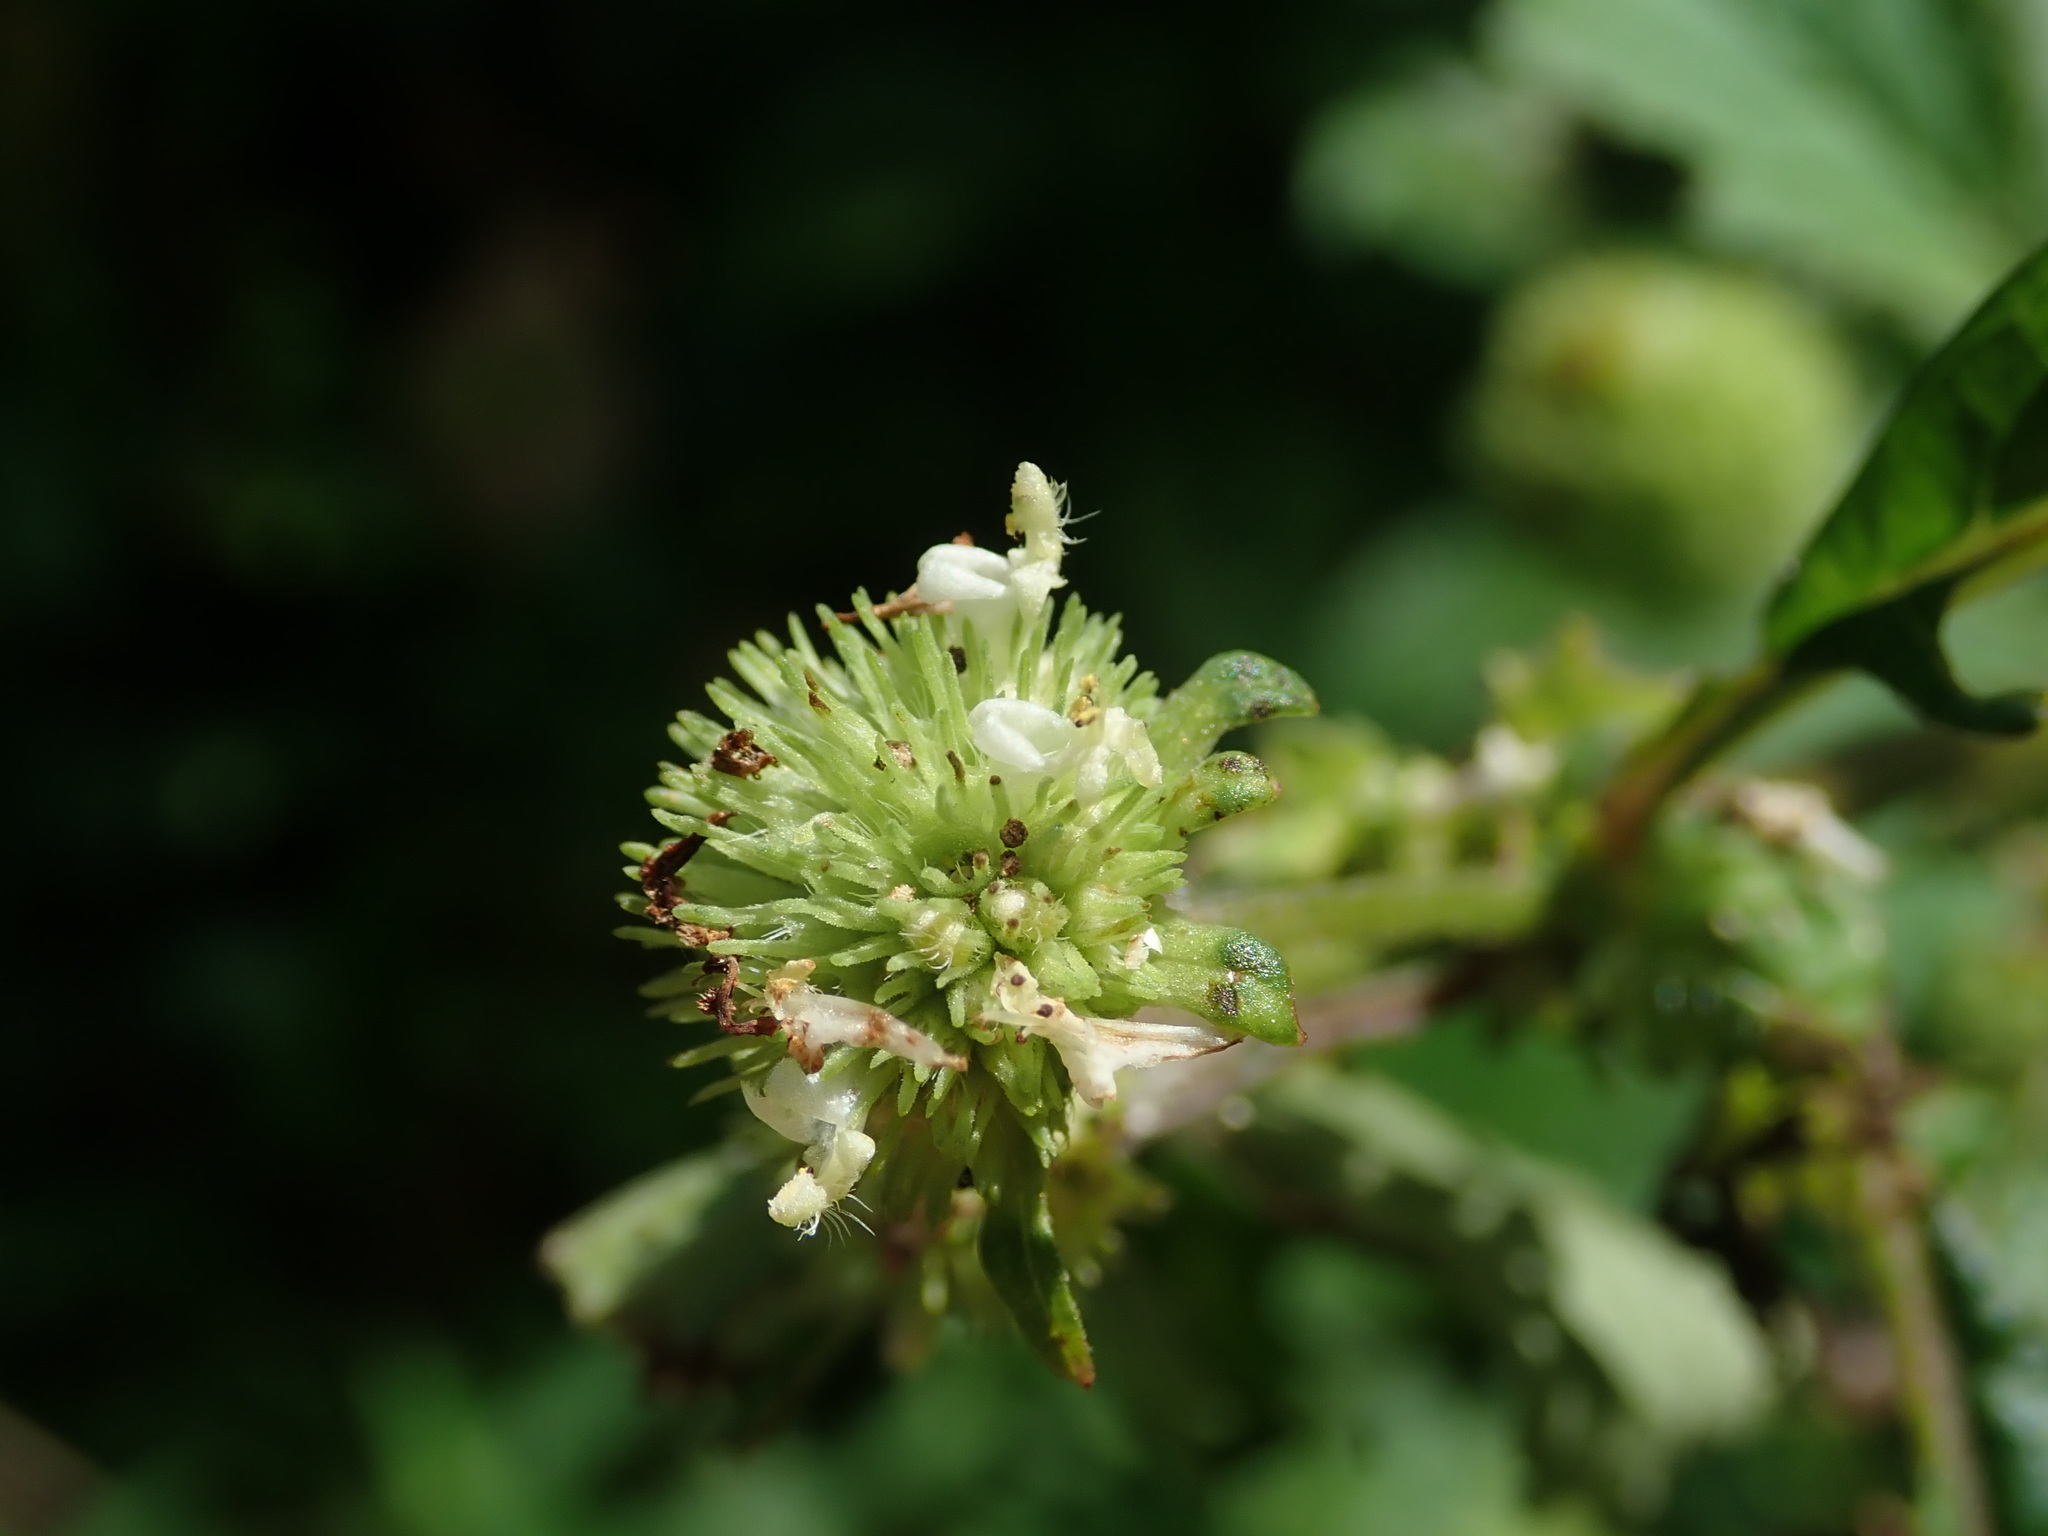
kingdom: Plantae
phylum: Tracheophyta
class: Magnoliopsida
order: Lamiales
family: Lamiaceae
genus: Hyptis
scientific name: Hyptis capitata
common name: False ironwort
